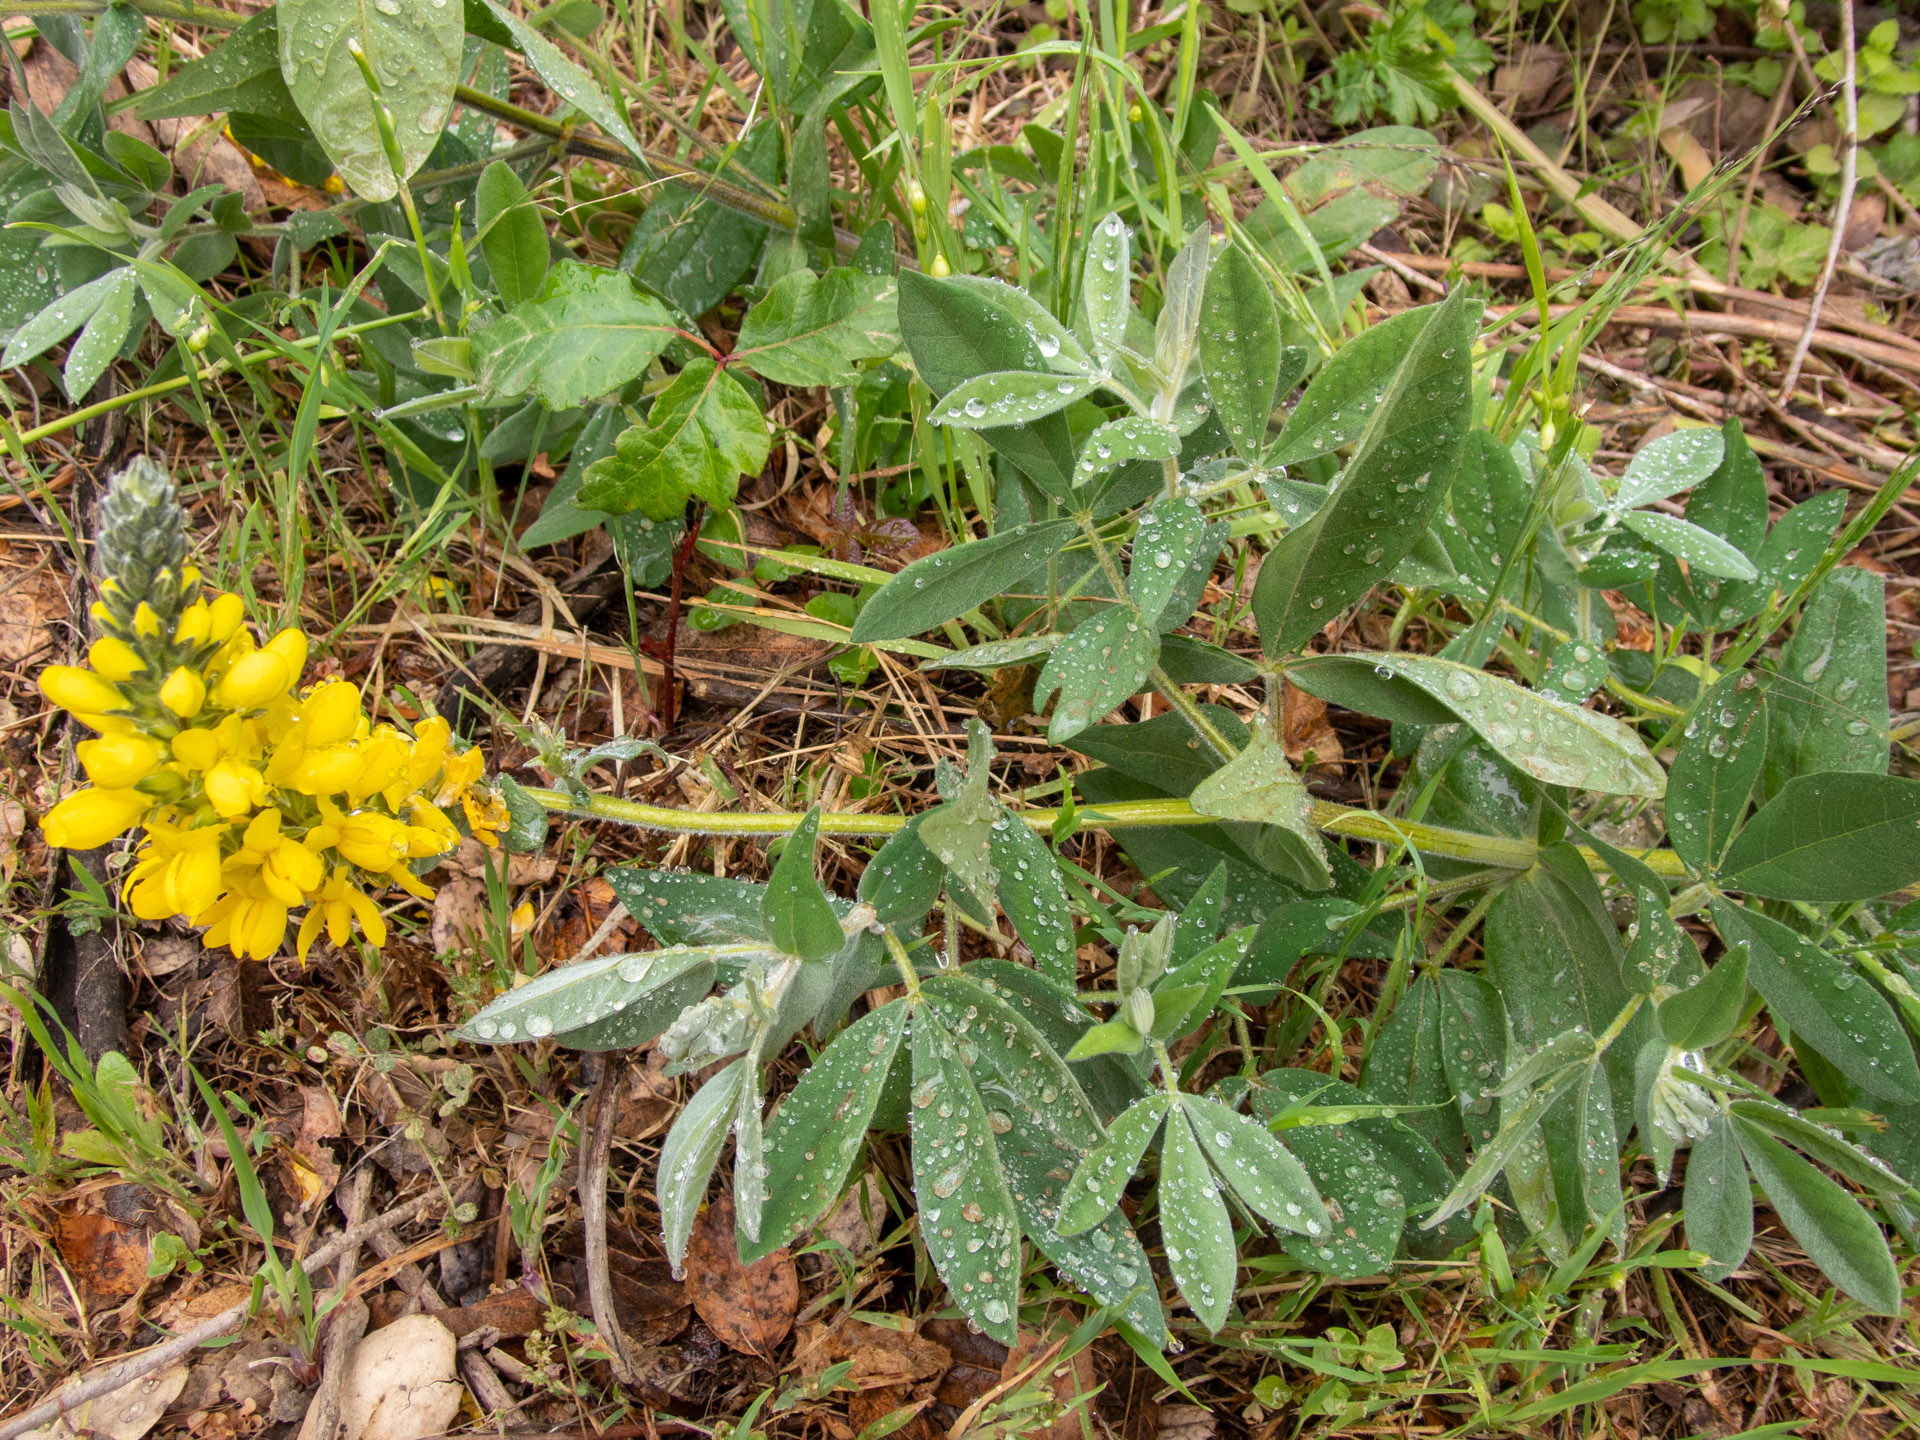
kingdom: Plantae
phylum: Tracheophyta
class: Magnoliopsida
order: Fabales
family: Fabaceae
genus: Thermopsis
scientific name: Thermopsis californica
